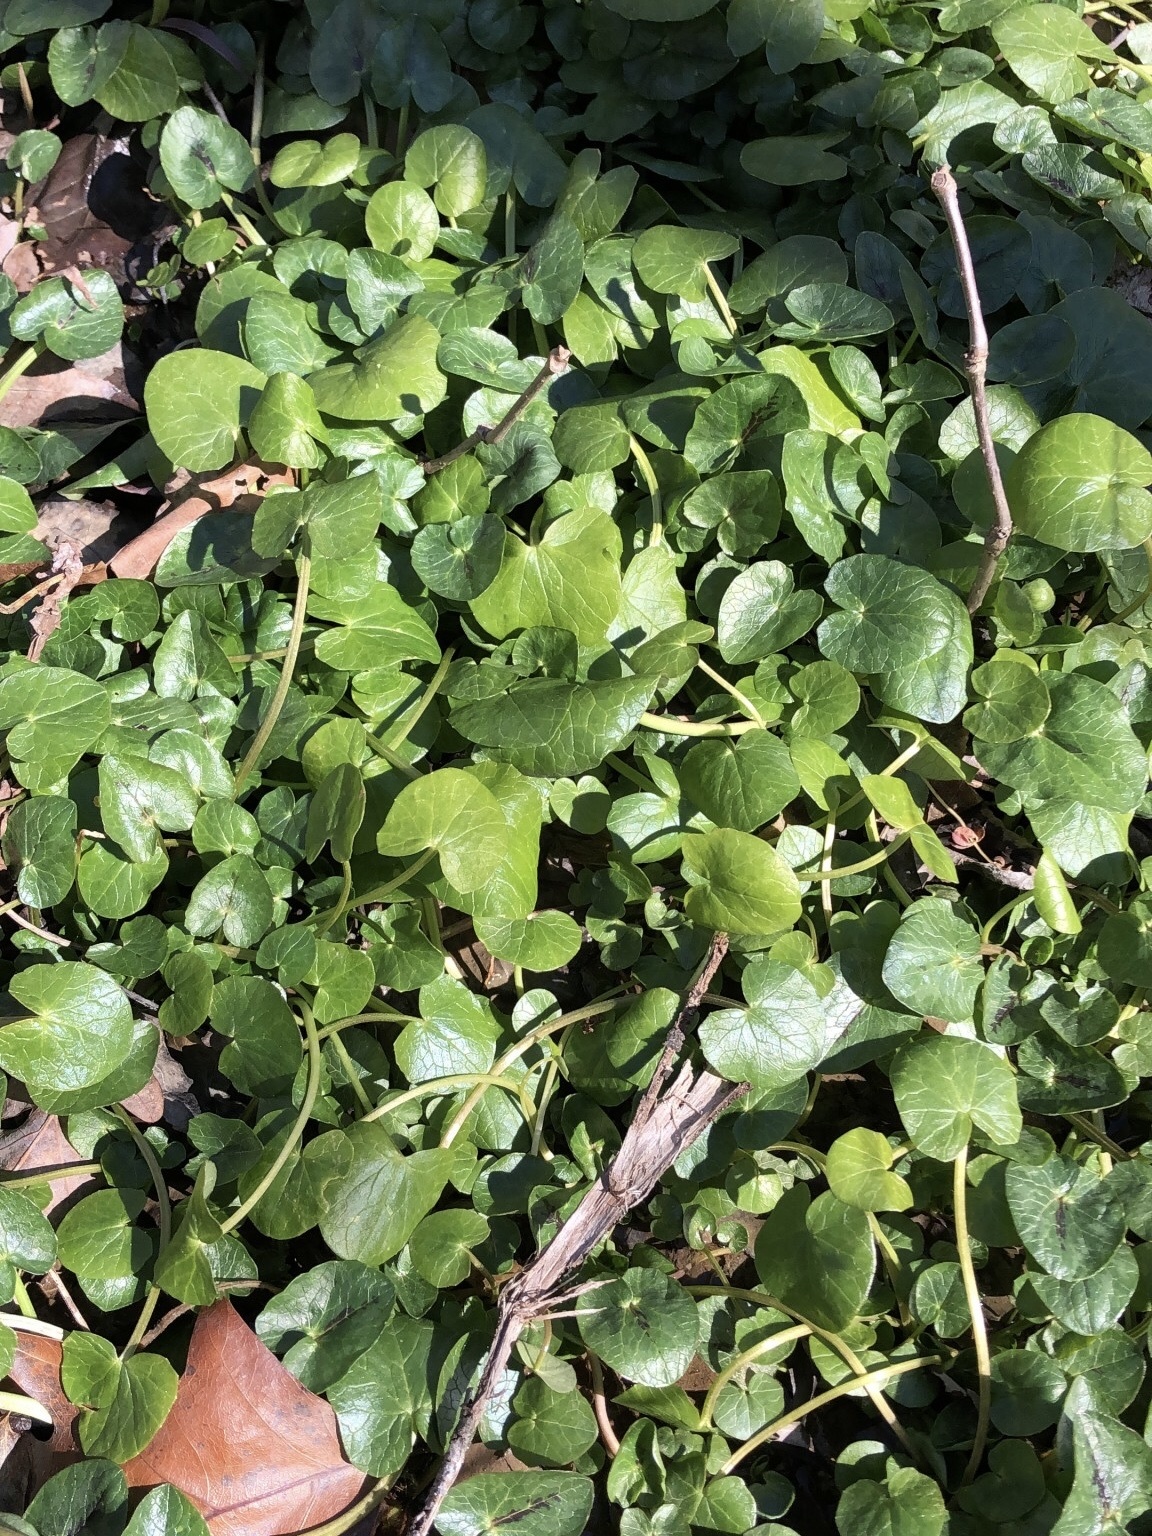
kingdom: Plantae
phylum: Tracheophyta
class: Magnoliopsida
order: Ranunculales
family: Ranunculaceae
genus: Ficaria
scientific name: Ficaria verna
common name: Lesser celandine
